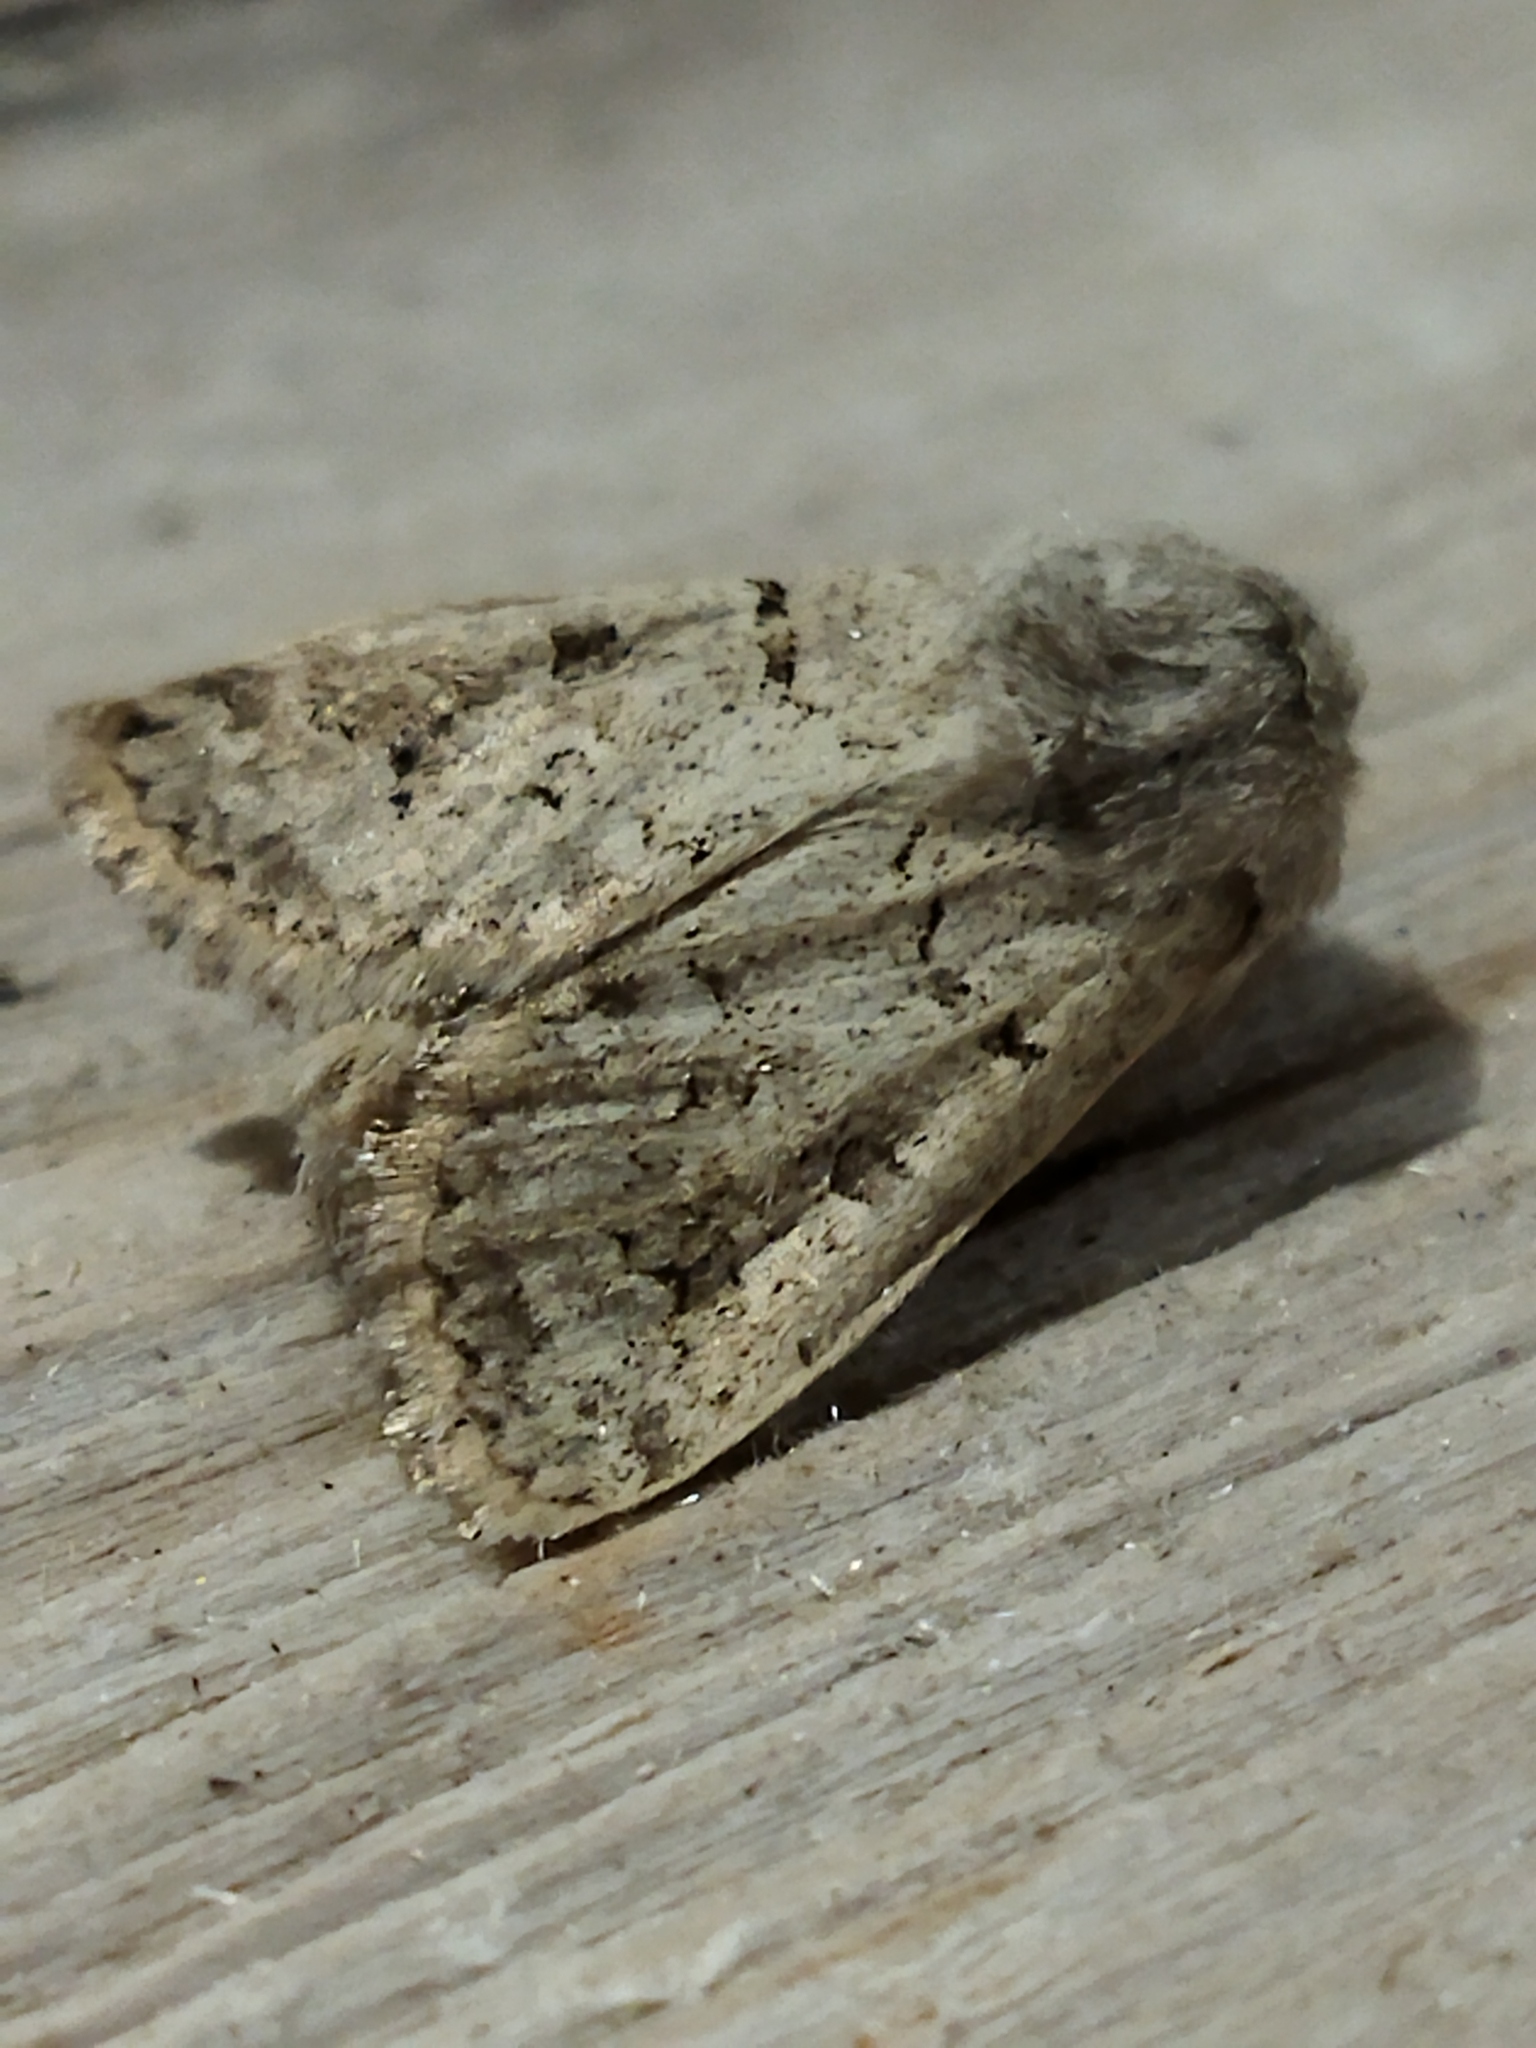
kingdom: Animalia
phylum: Arthropoda
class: Insecta
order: Lepidoptera
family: Noctuidae
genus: Episema
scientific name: Episema lederi
